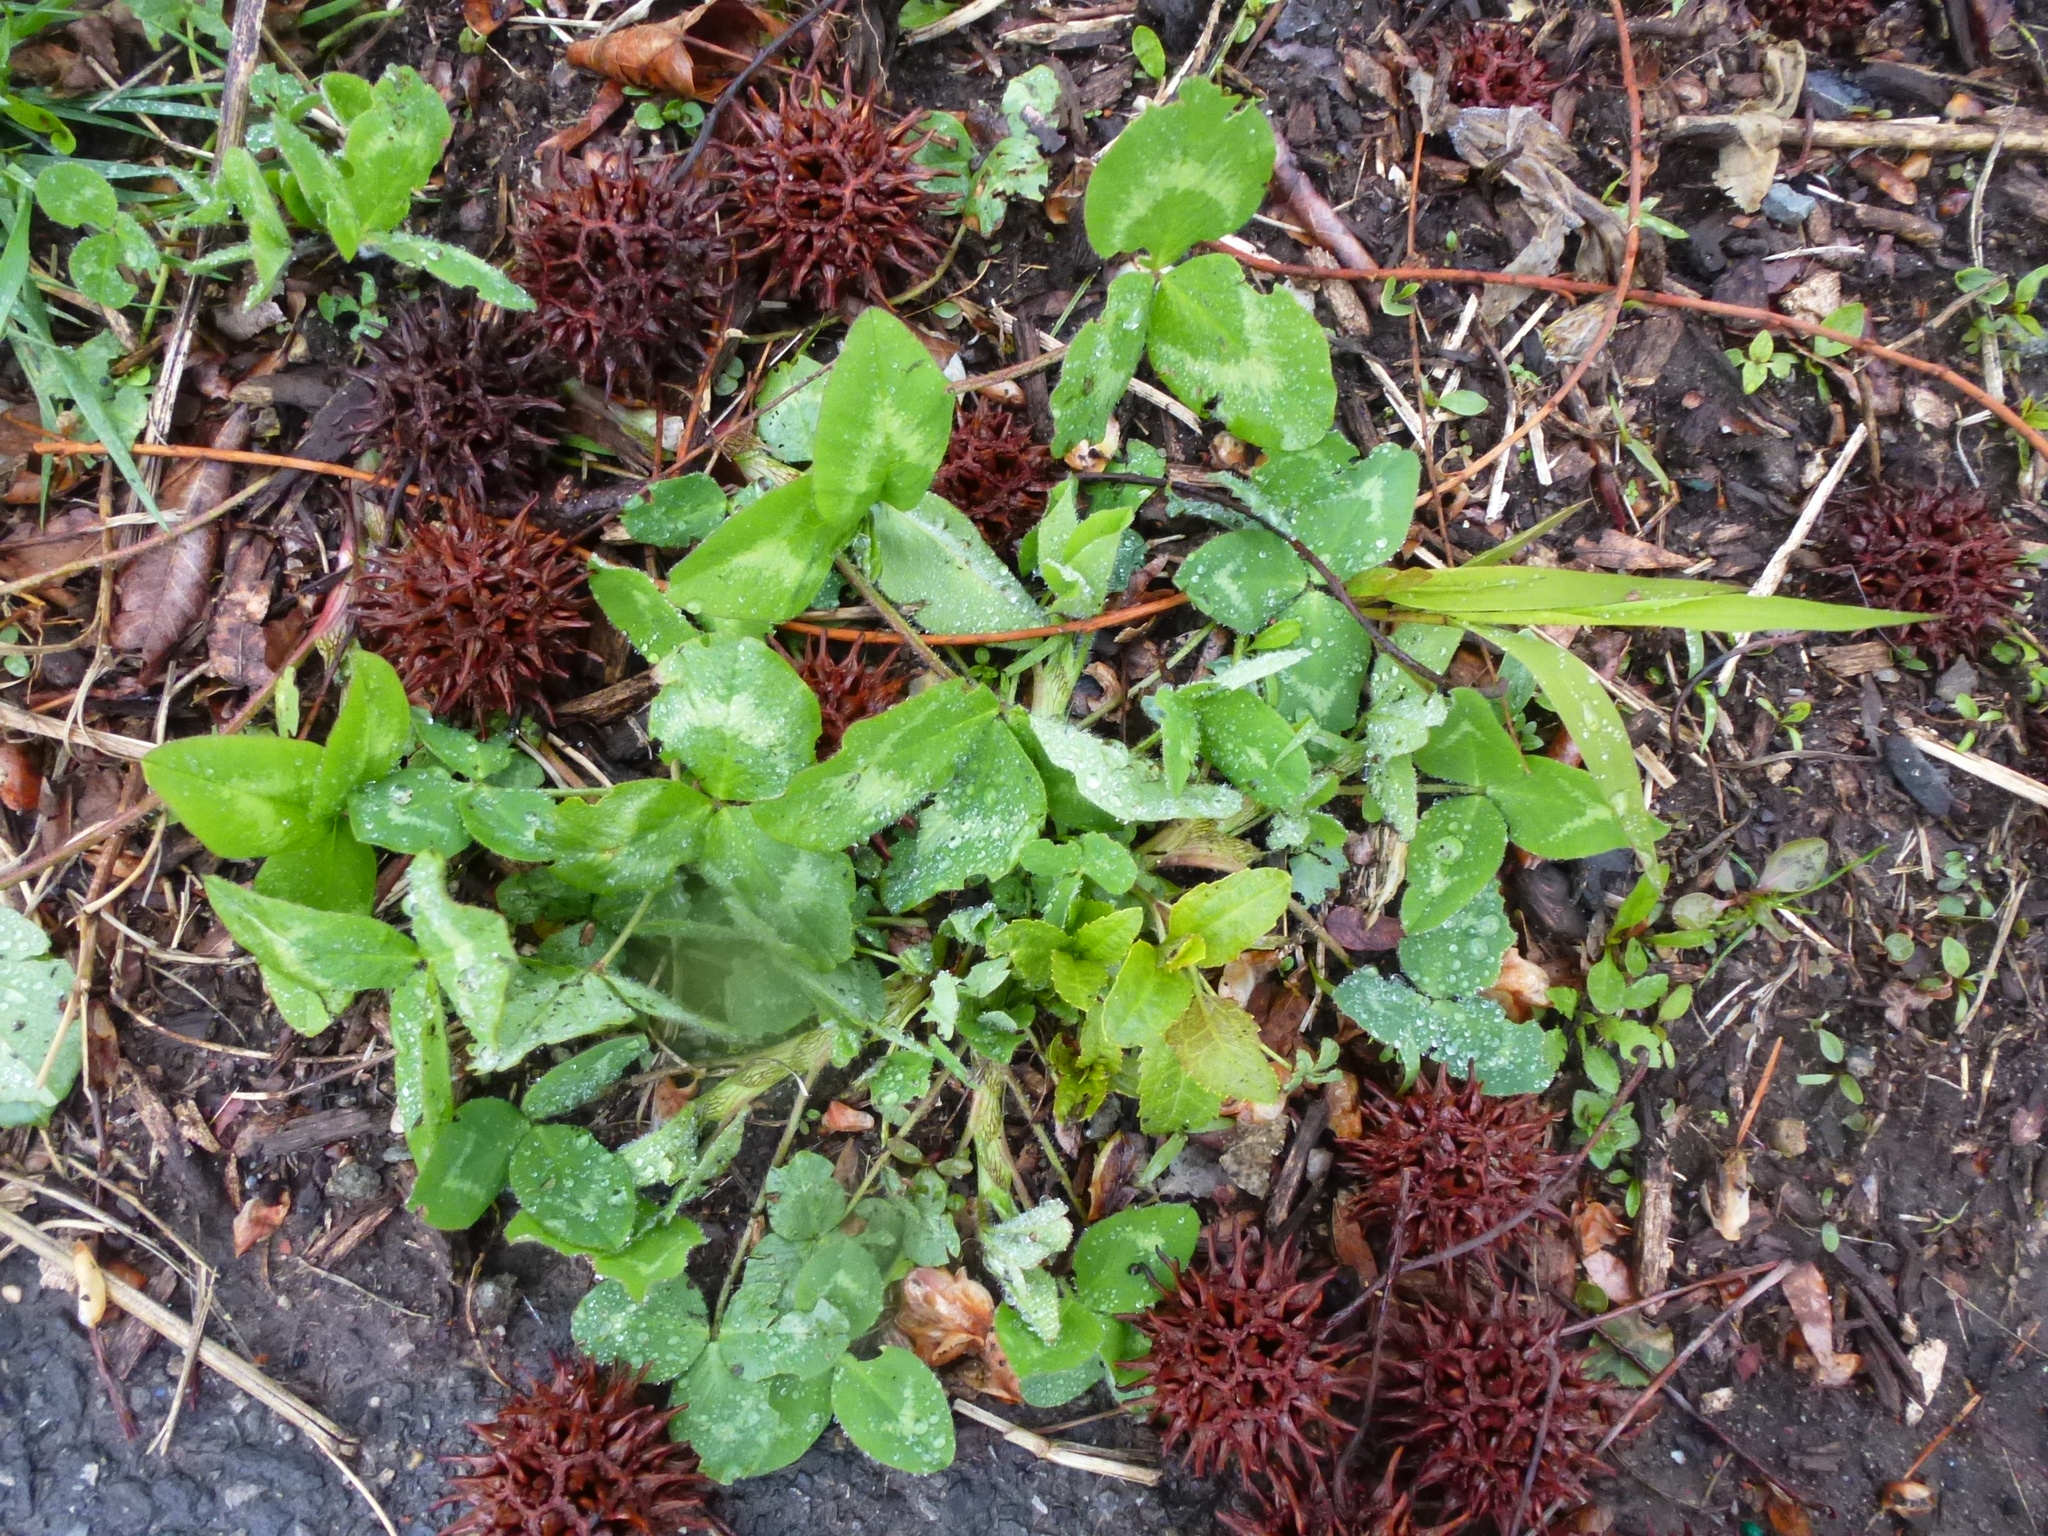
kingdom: Plantae
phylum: Tracheophyta
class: Magnoliopsida
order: Fabales
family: Fabaceae
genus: Trifolium
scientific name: Trifolium pratense
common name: Red clover
